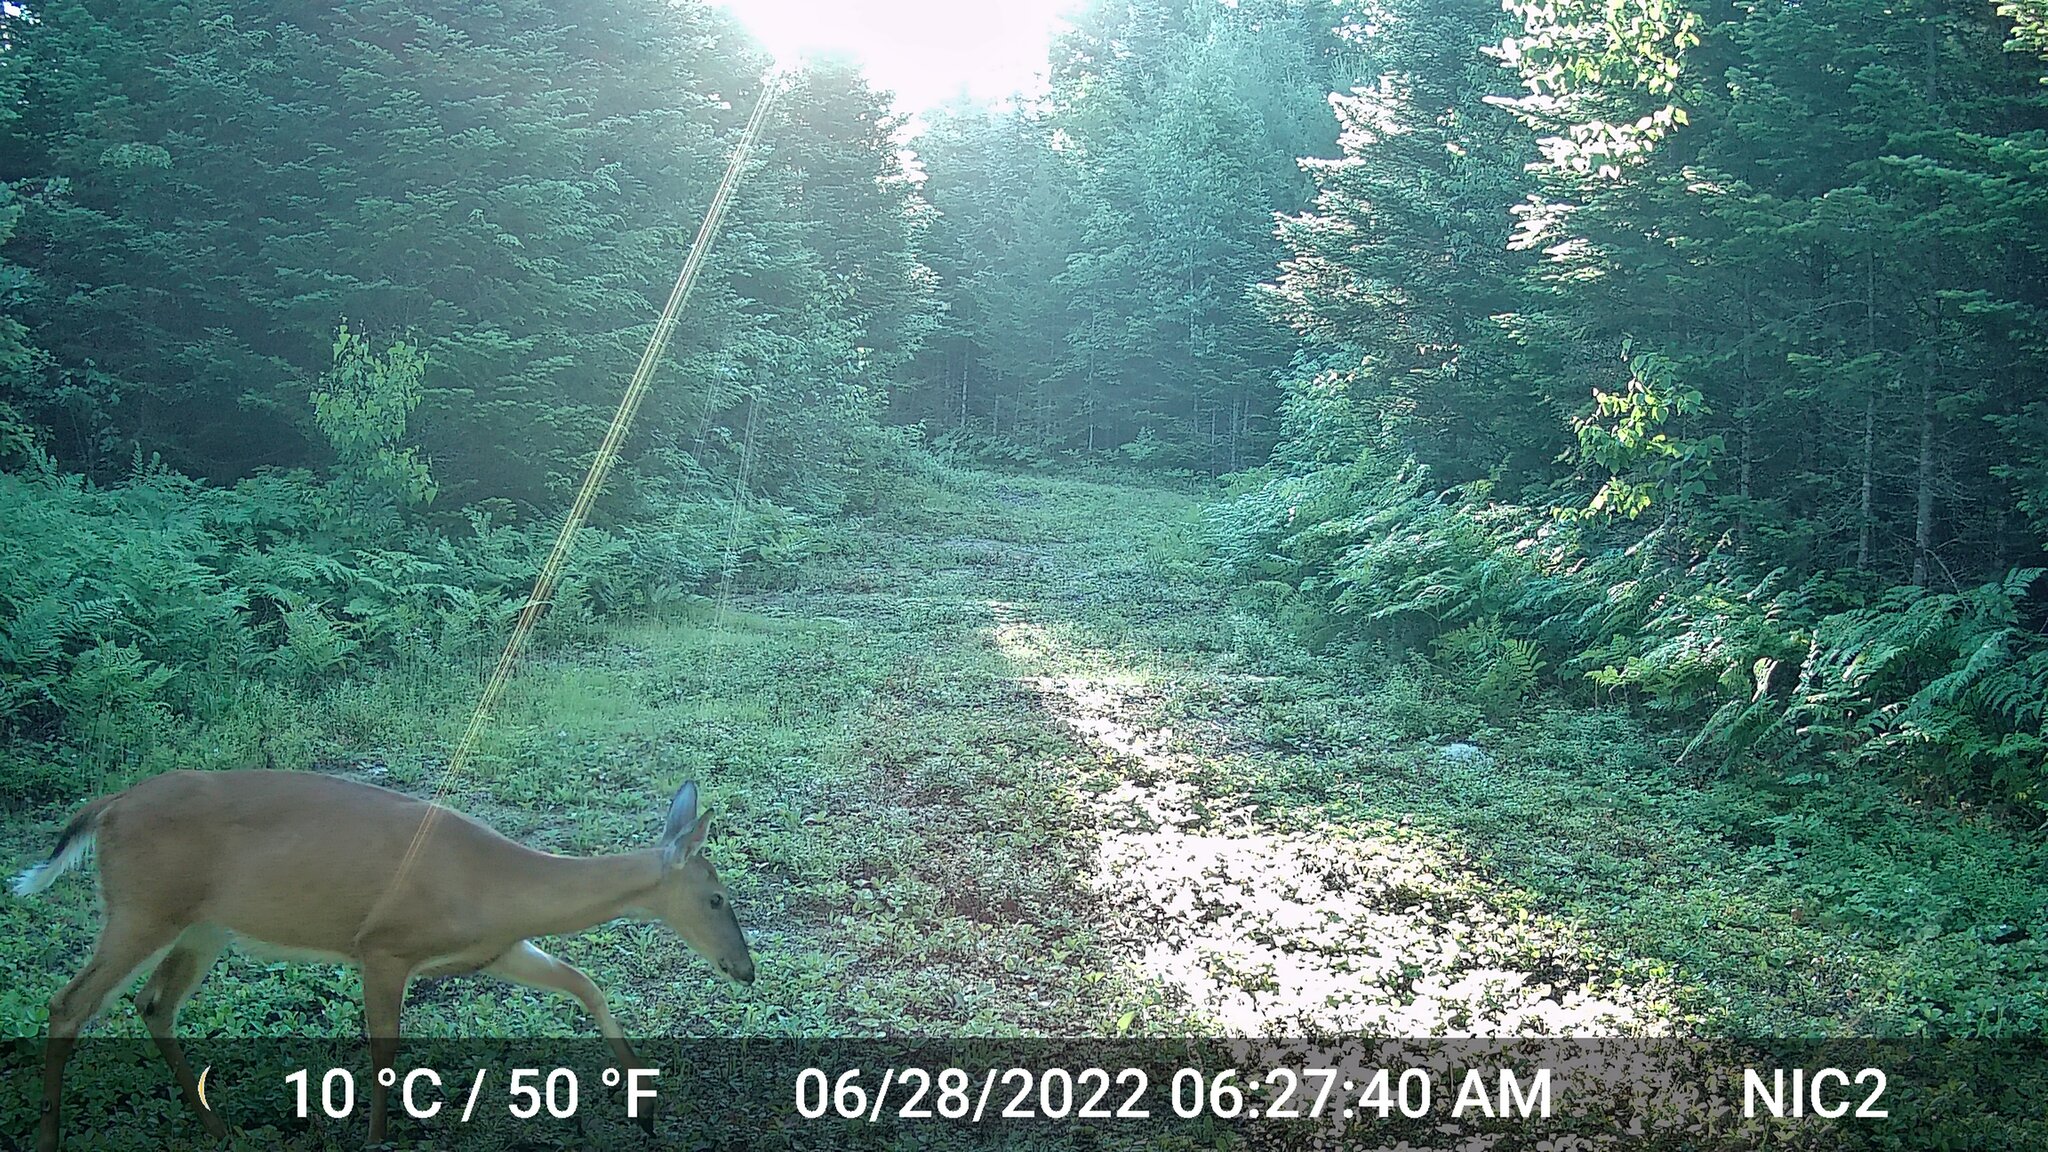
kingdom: Animalia
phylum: Chordata
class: Mammalia
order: Artiodactyla
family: Cervidae
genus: Odocoileus
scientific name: Odocoileus virginianus
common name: White-tailed deer
